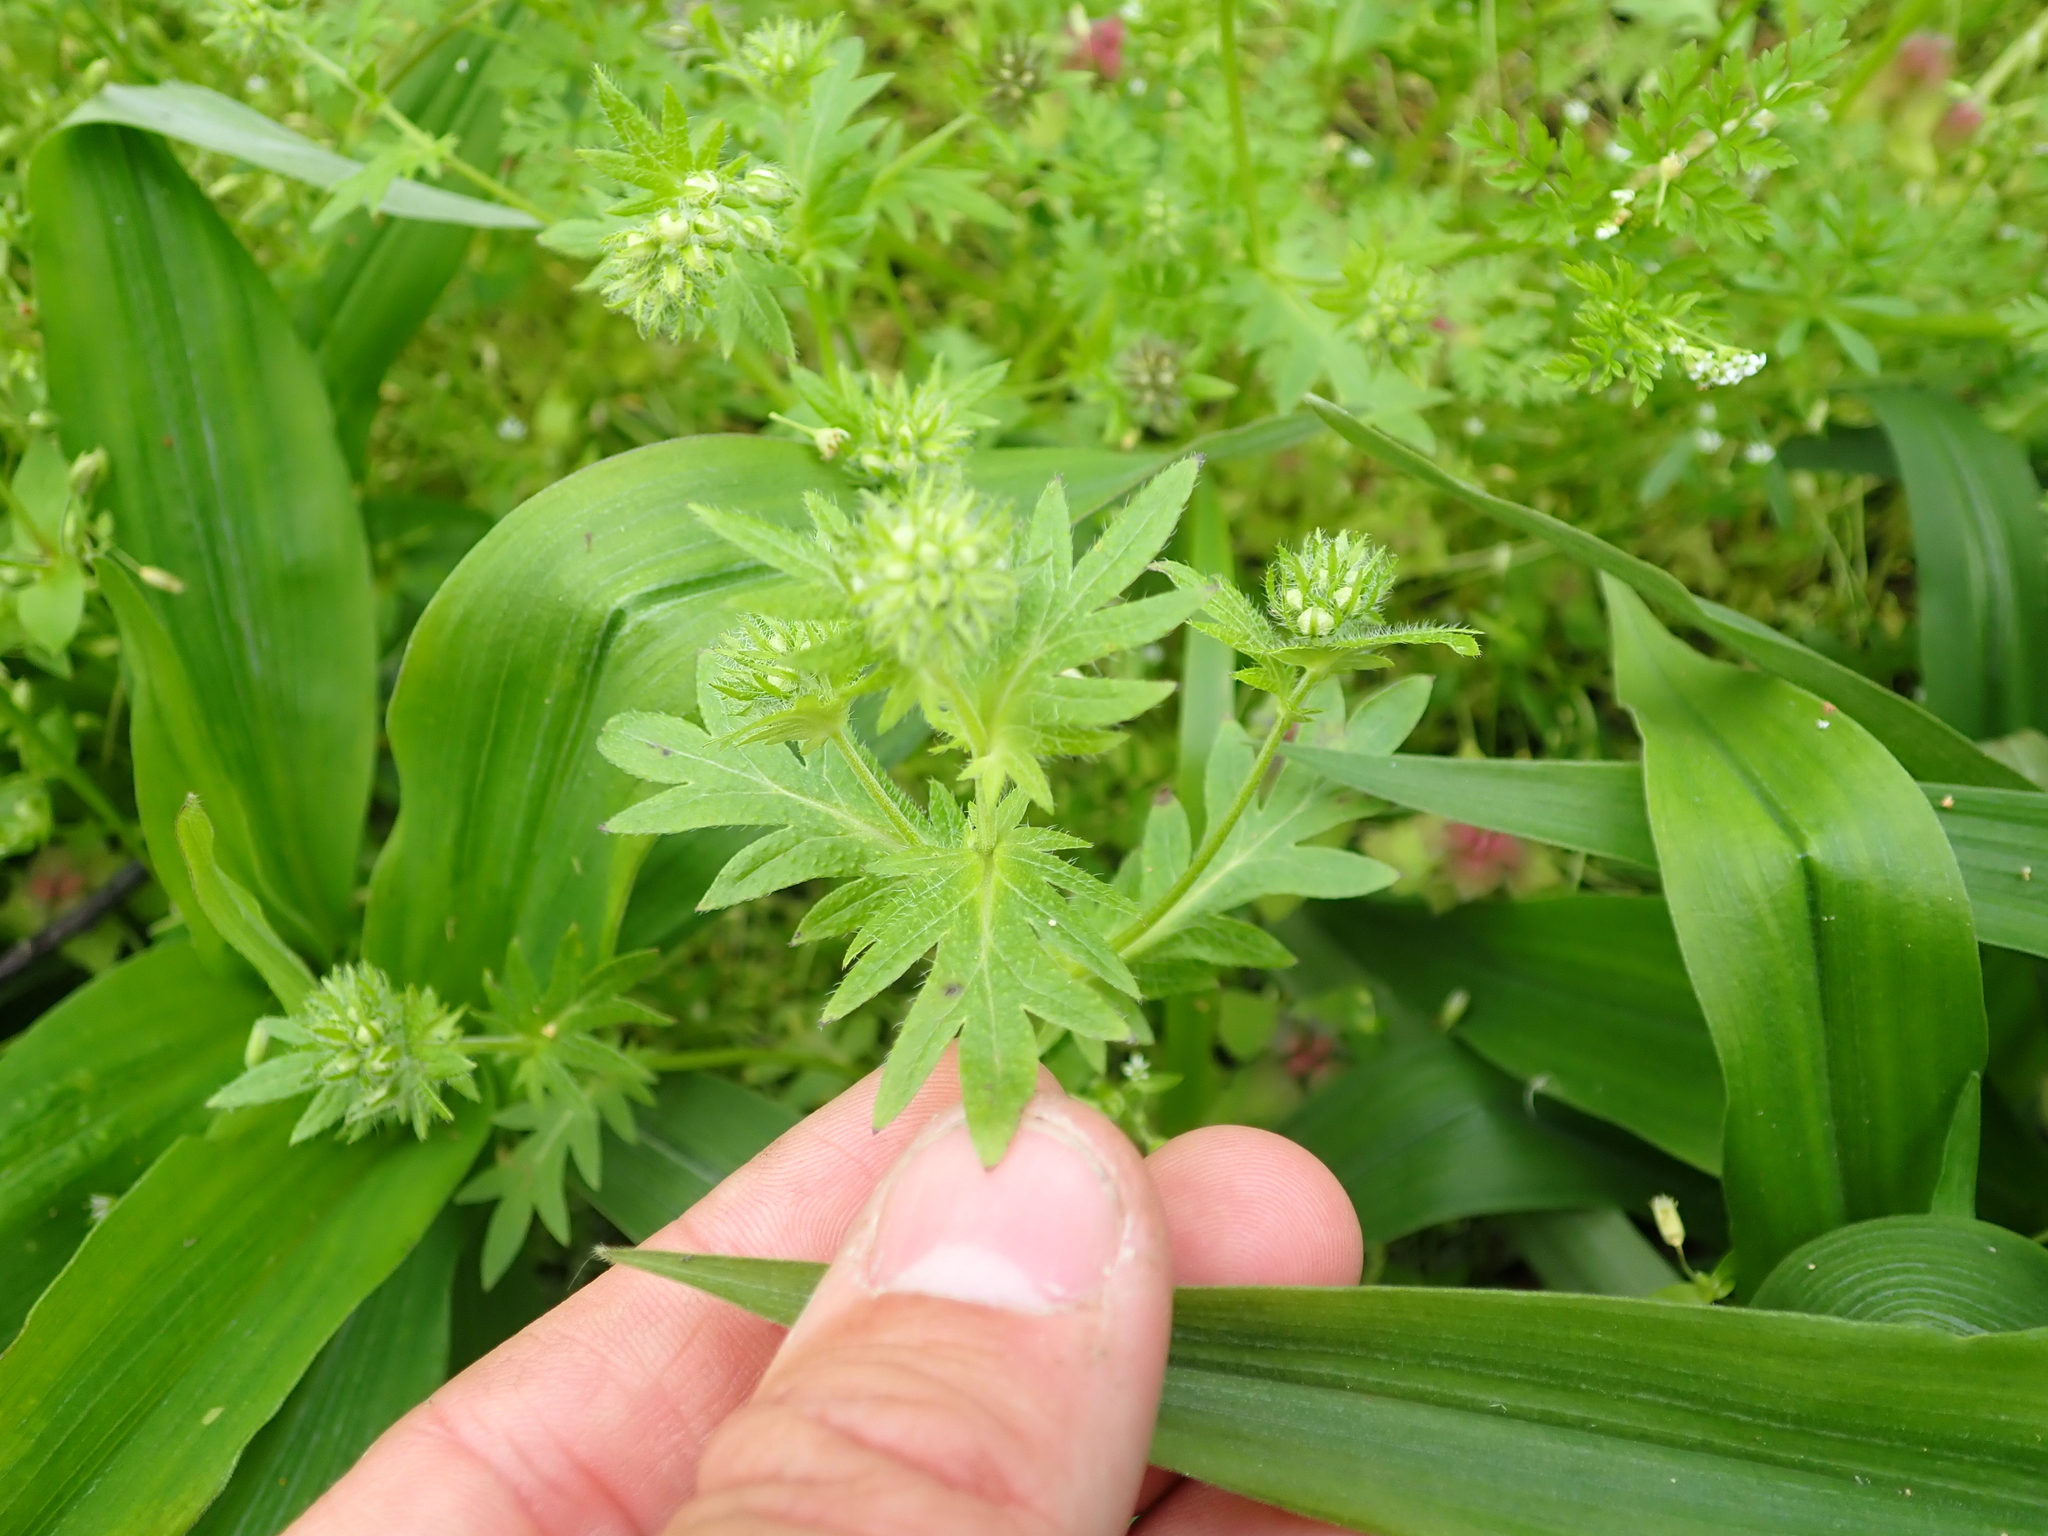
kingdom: Plantae
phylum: Tracheophyta
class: Magnoliopsida
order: Boraginales
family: Hydrophyllaceae
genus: Phacelia
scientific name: Phacelia purshii
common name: Miami-mist
